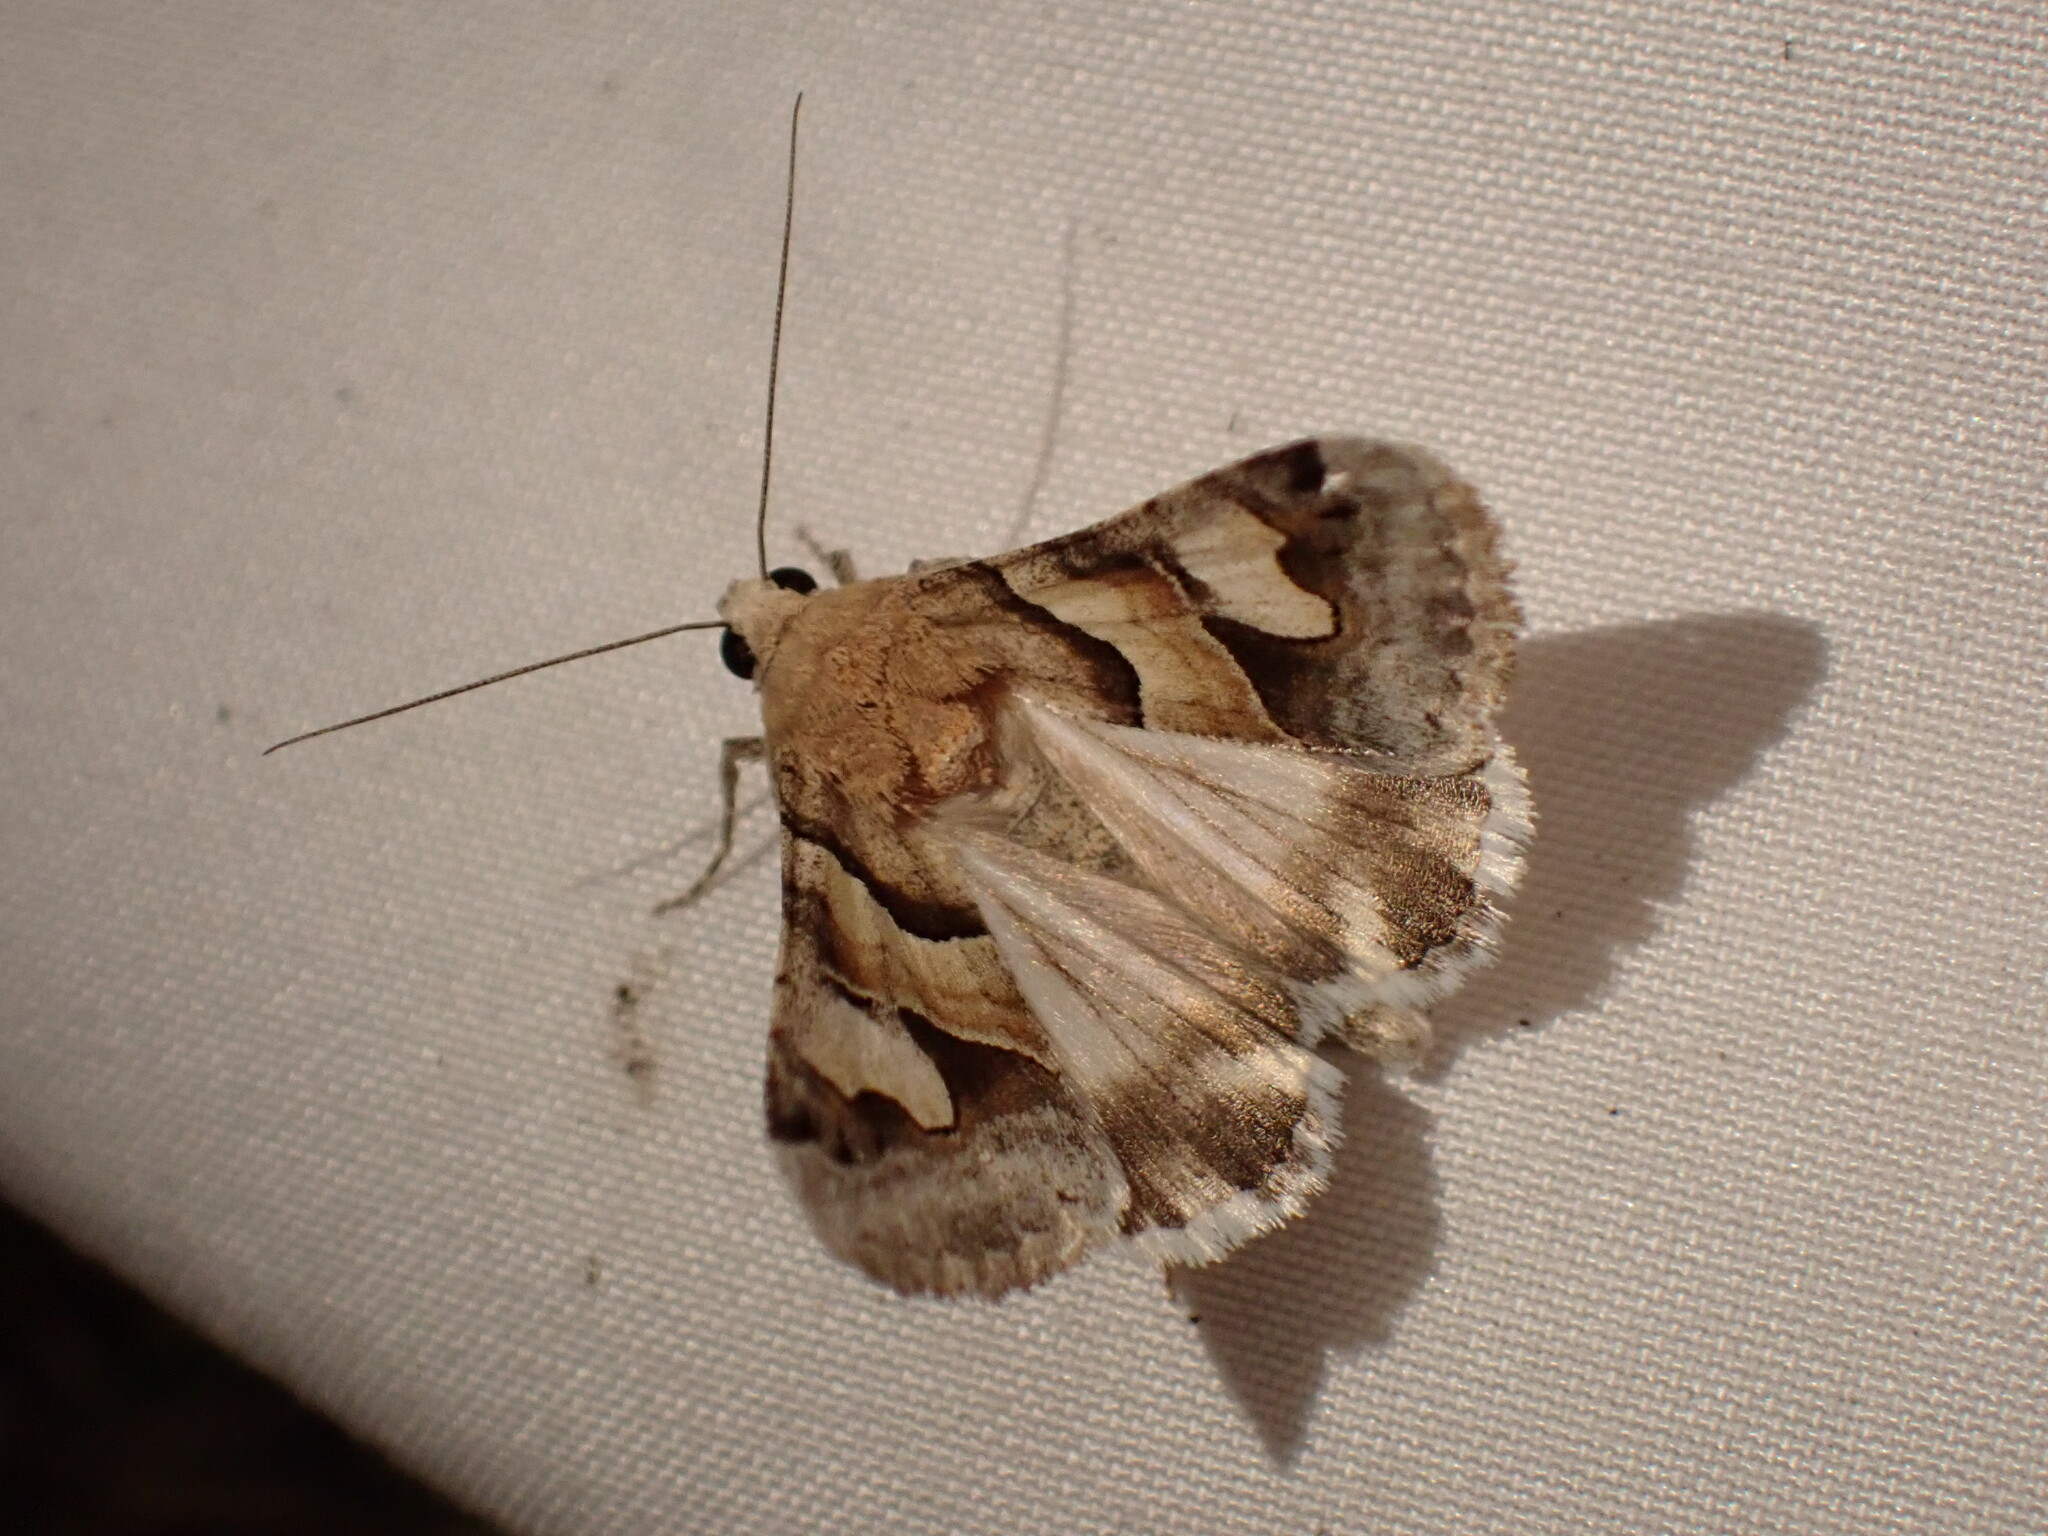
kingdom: Animalia
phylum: Arthropoda
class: Insecta
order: Lepidoptera
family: Erebidae
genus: Drasteria
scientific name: Drasteria pallescens
